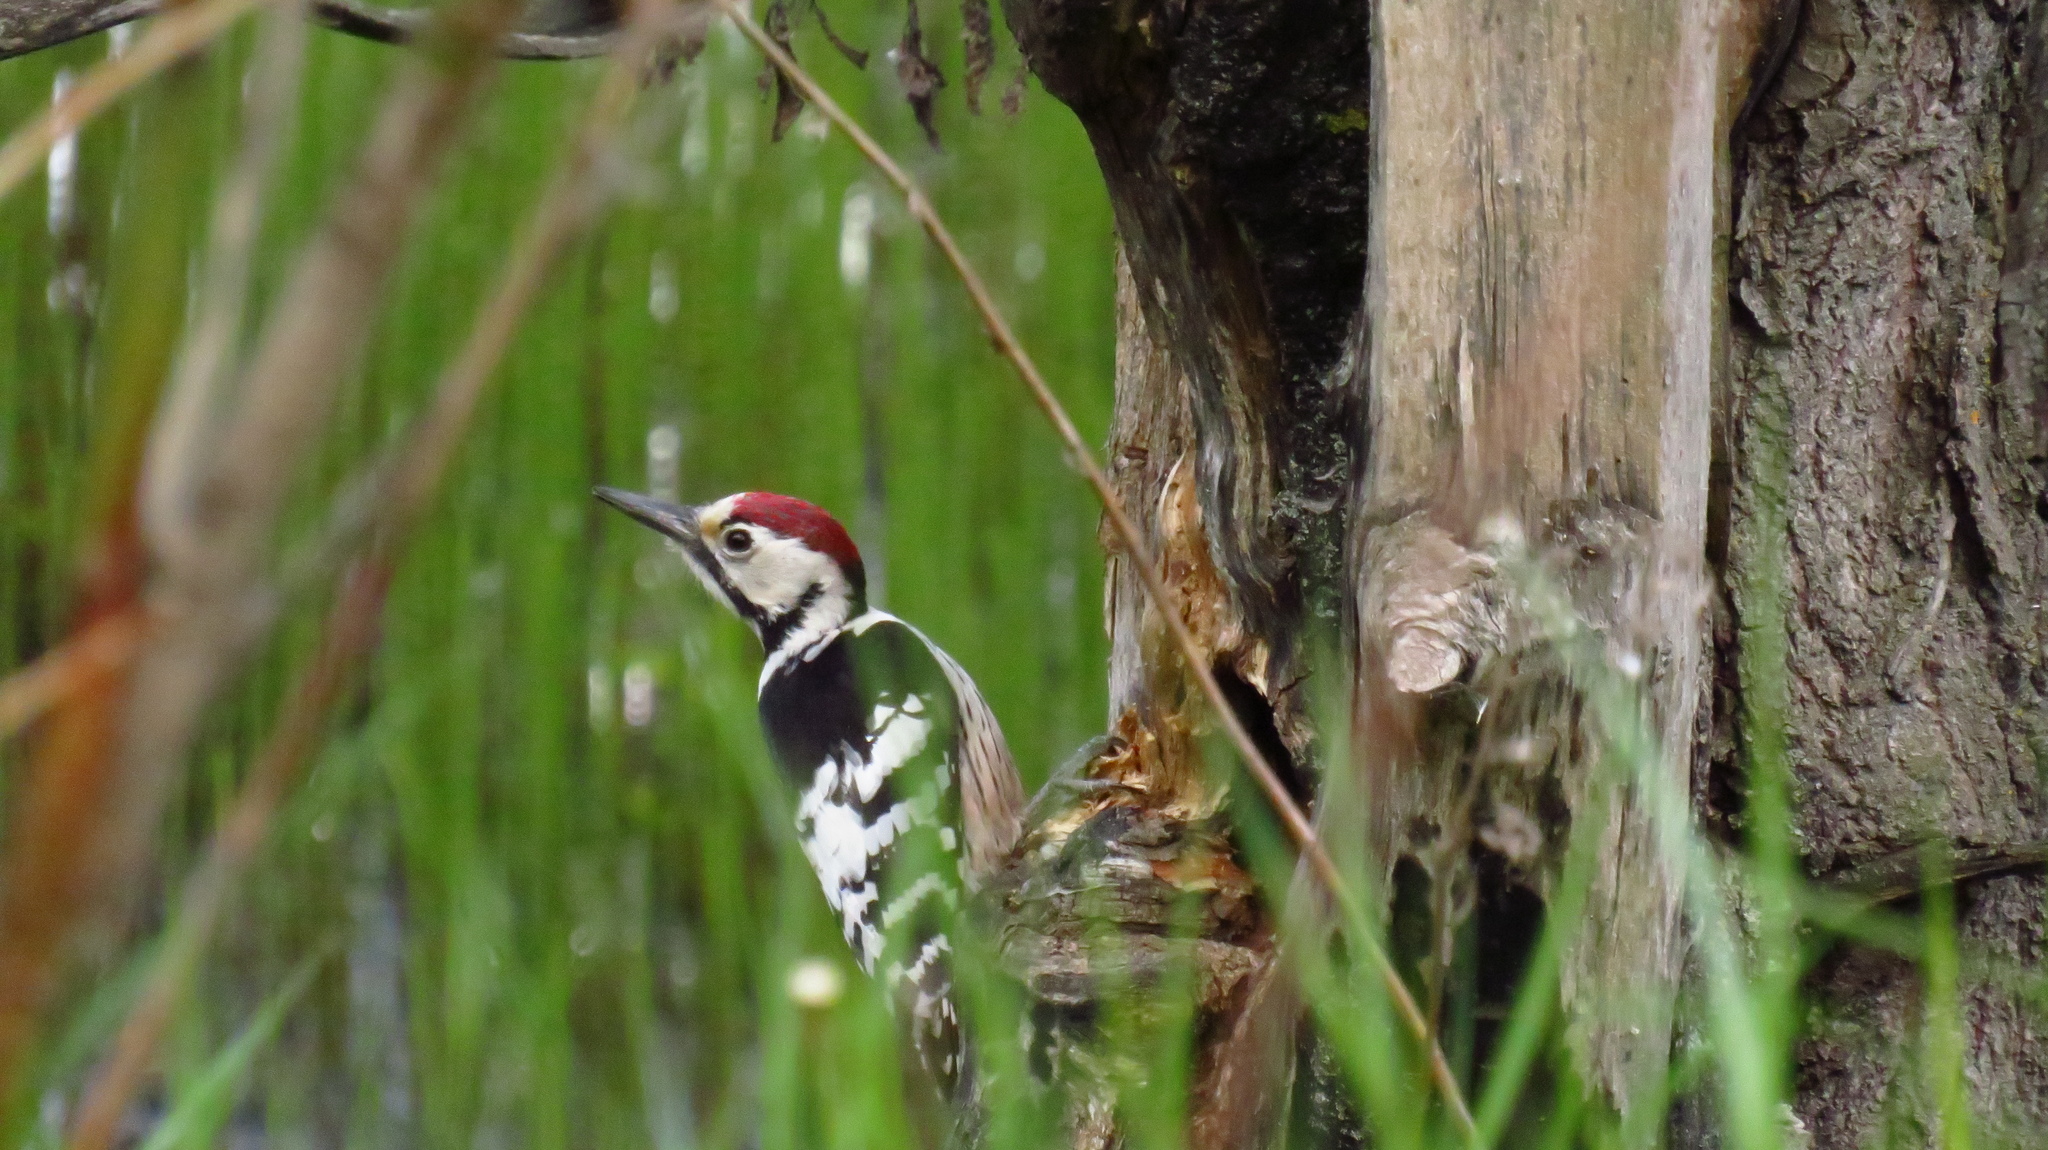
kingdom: Animalia
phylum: Chordata
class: Aves
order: Piciformes
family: Picidae
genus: Dendrocopos
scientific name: Dendrocopos leucotos
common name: White-backed woodpecker
